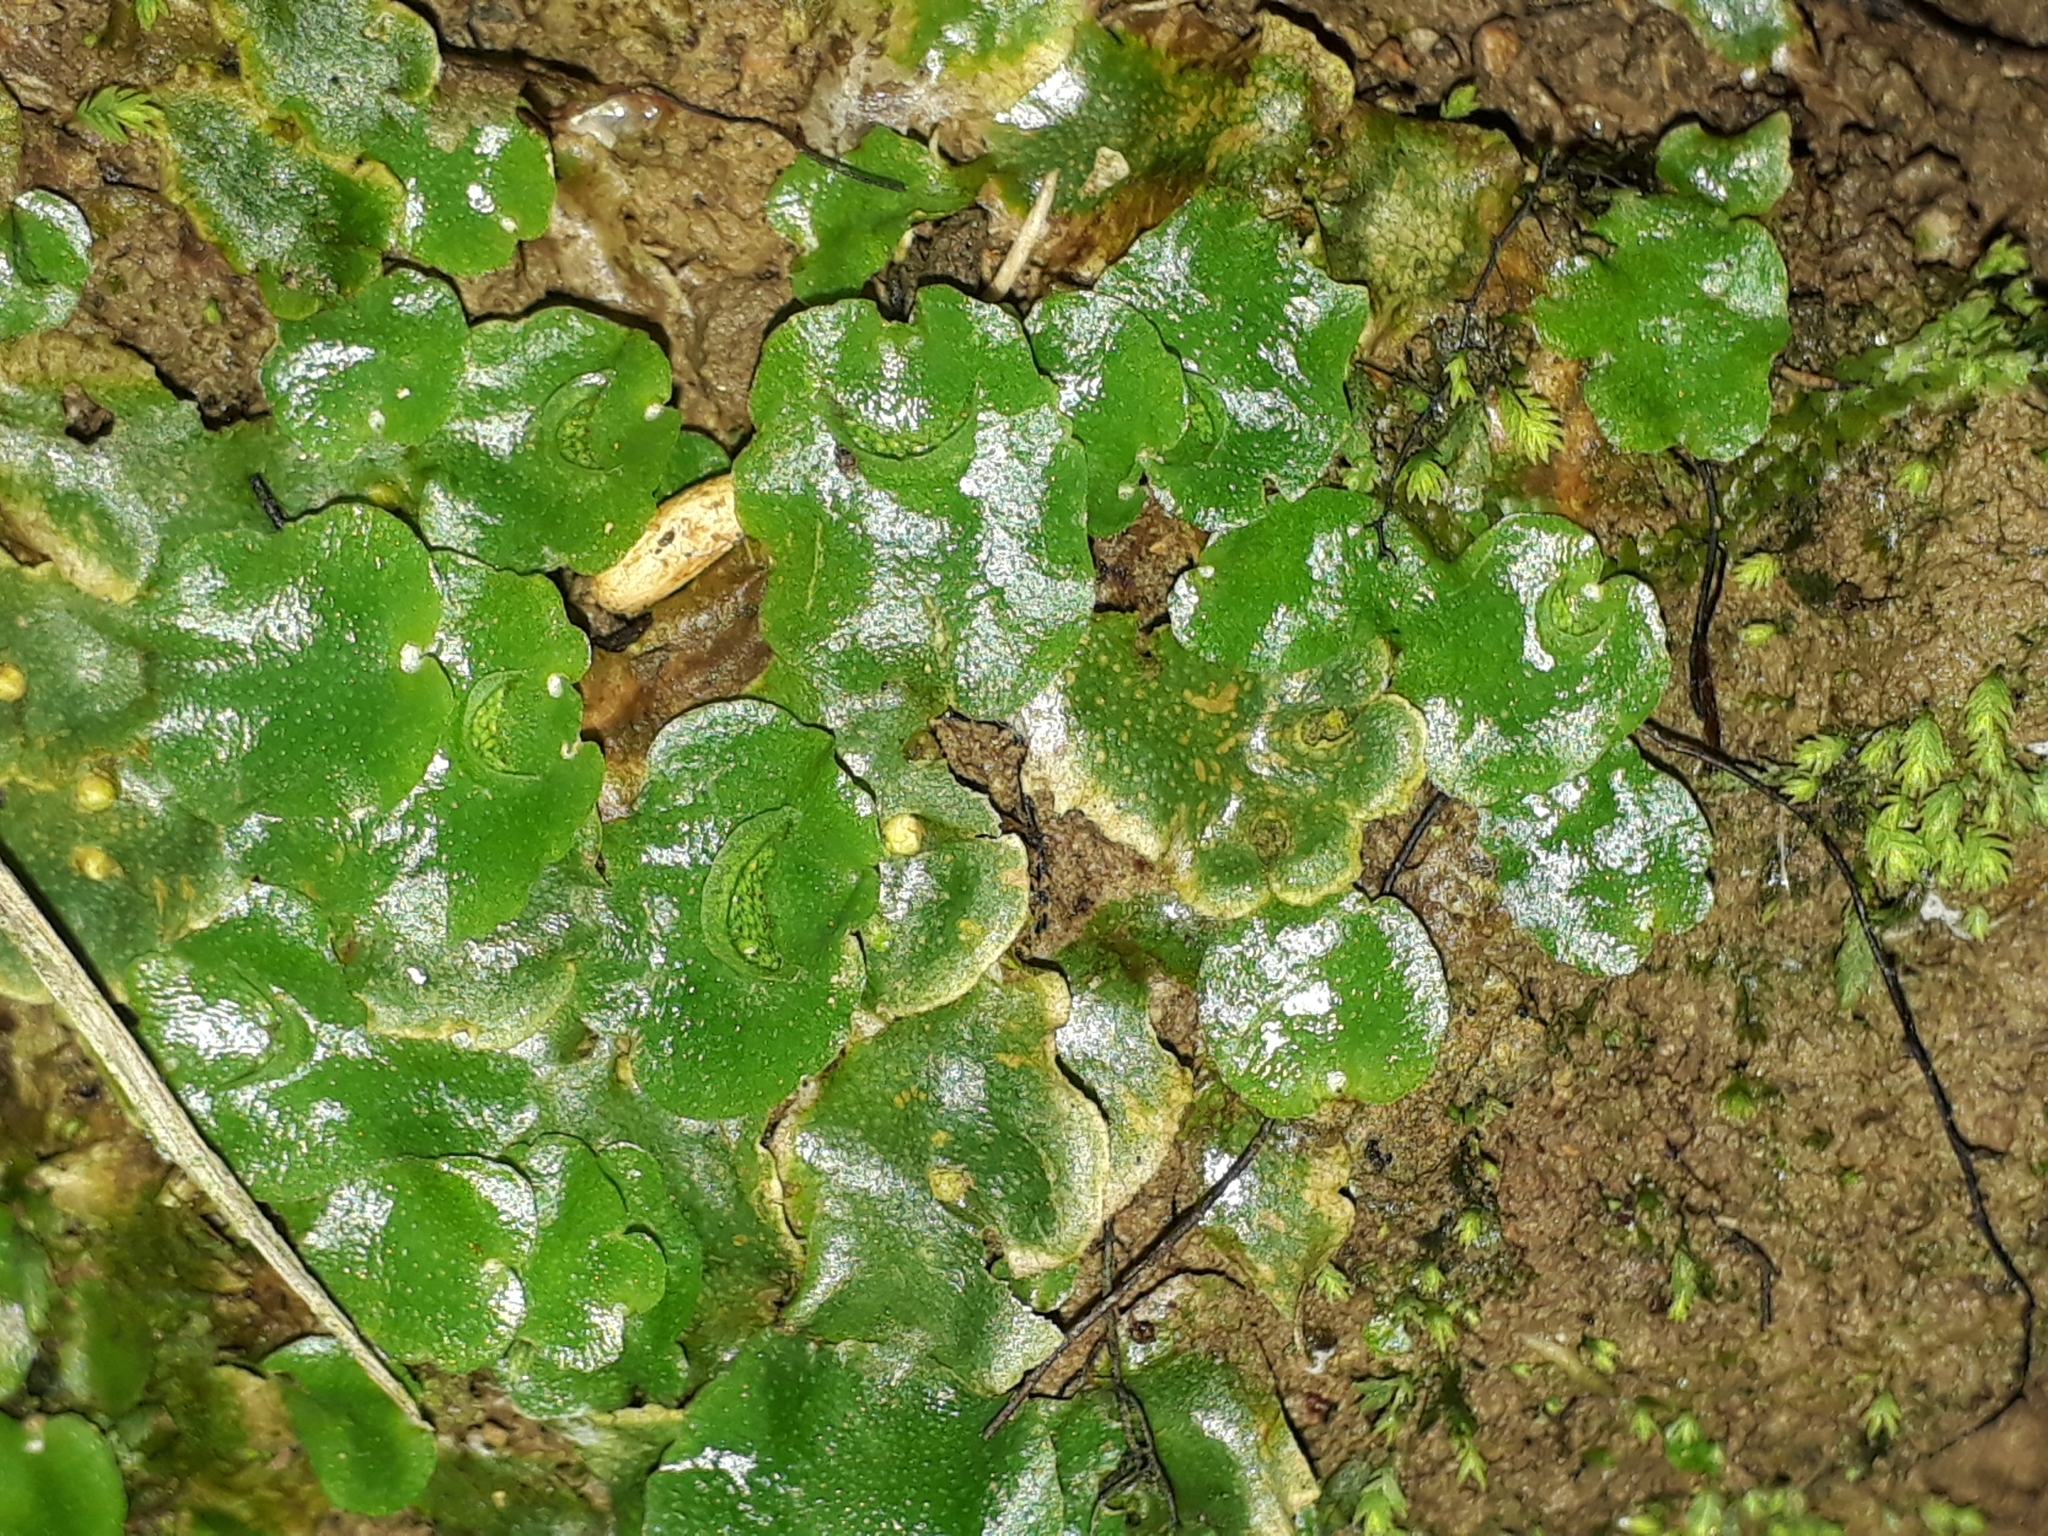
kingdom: Plantae
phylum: Marchantiophyta
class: Marchantiopsida
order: Lunulariales
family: Lunulariaceae
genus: Lunularia
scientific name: Lunularia cruciata
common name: Crescent-cup liverwort
